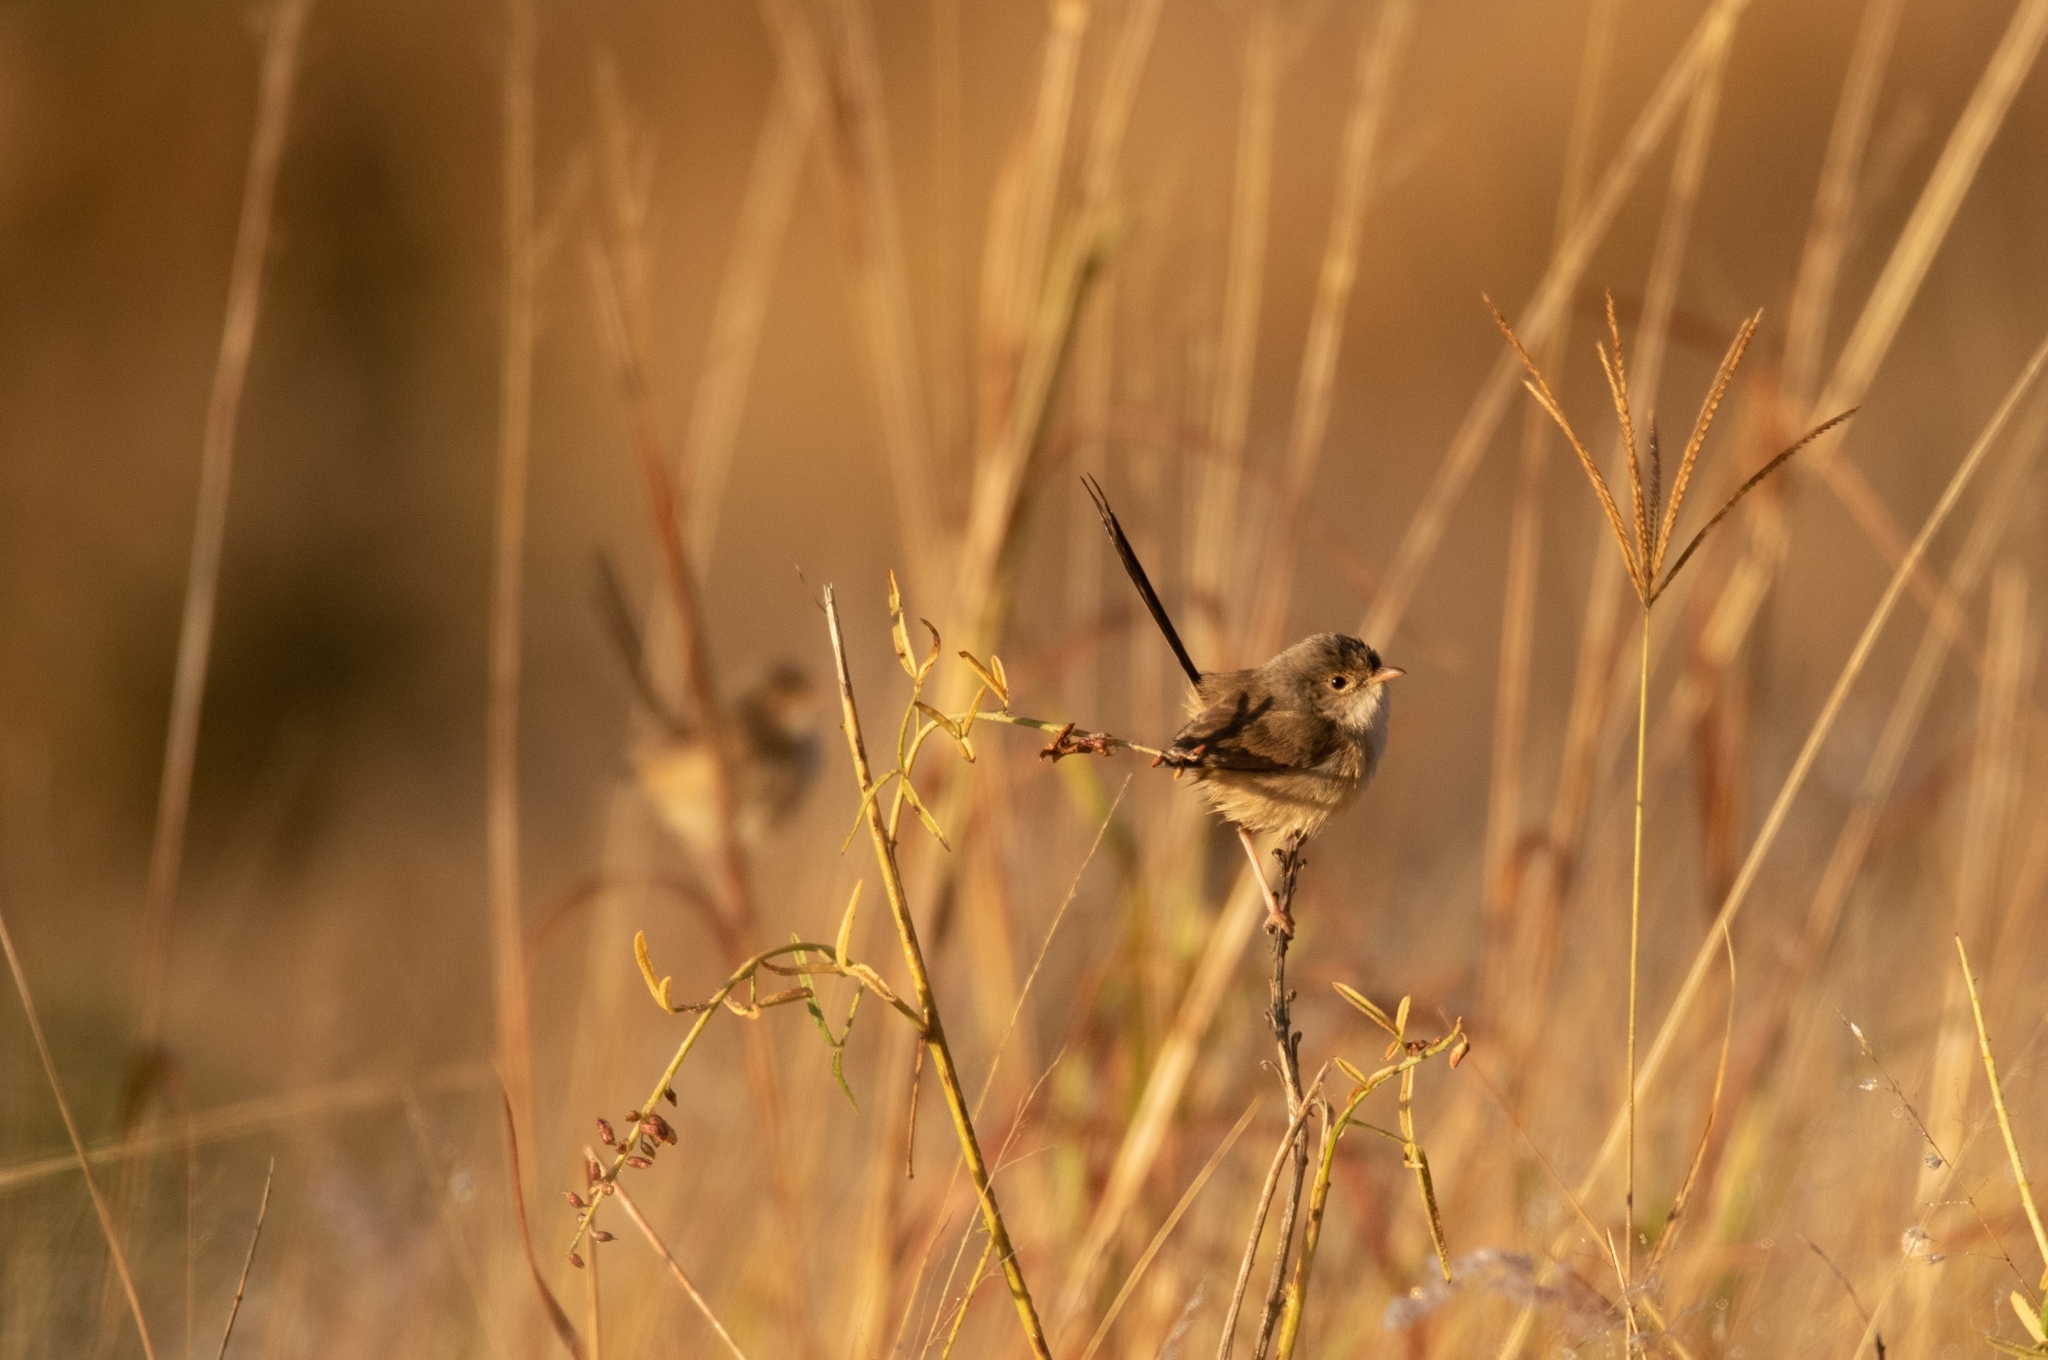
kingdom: Animalia
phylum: Chordata
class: Aves
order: Passeriformes
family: Maluridae
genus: Malurus
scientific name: Malurus melanocephalus
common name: Red-backed fairywren
